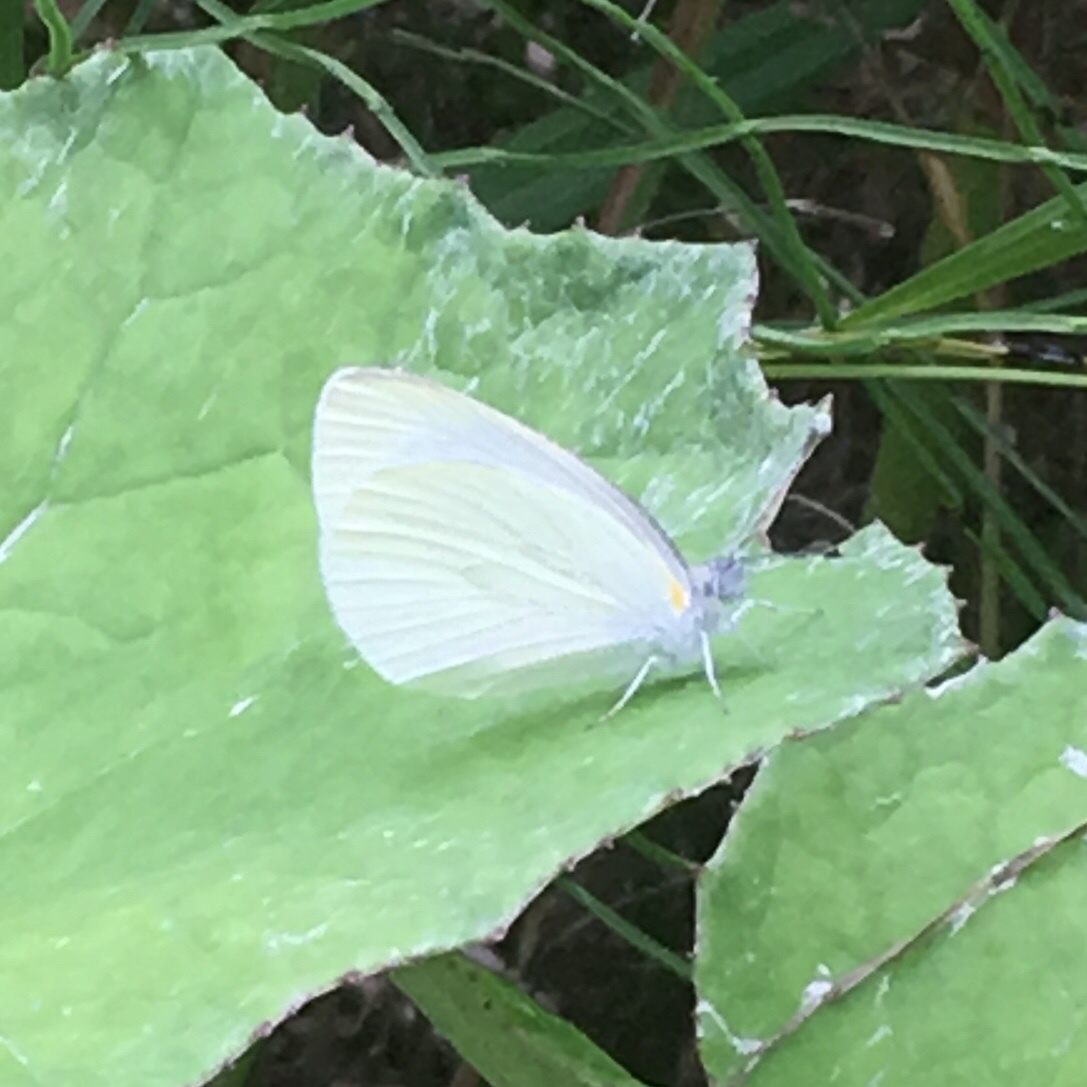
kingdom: Animalia
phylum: Arthropoda
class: Insecta
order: Lepidoptera
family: Pieridae
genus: Pieris
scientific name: Pieris oleracea
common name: Mustard white
